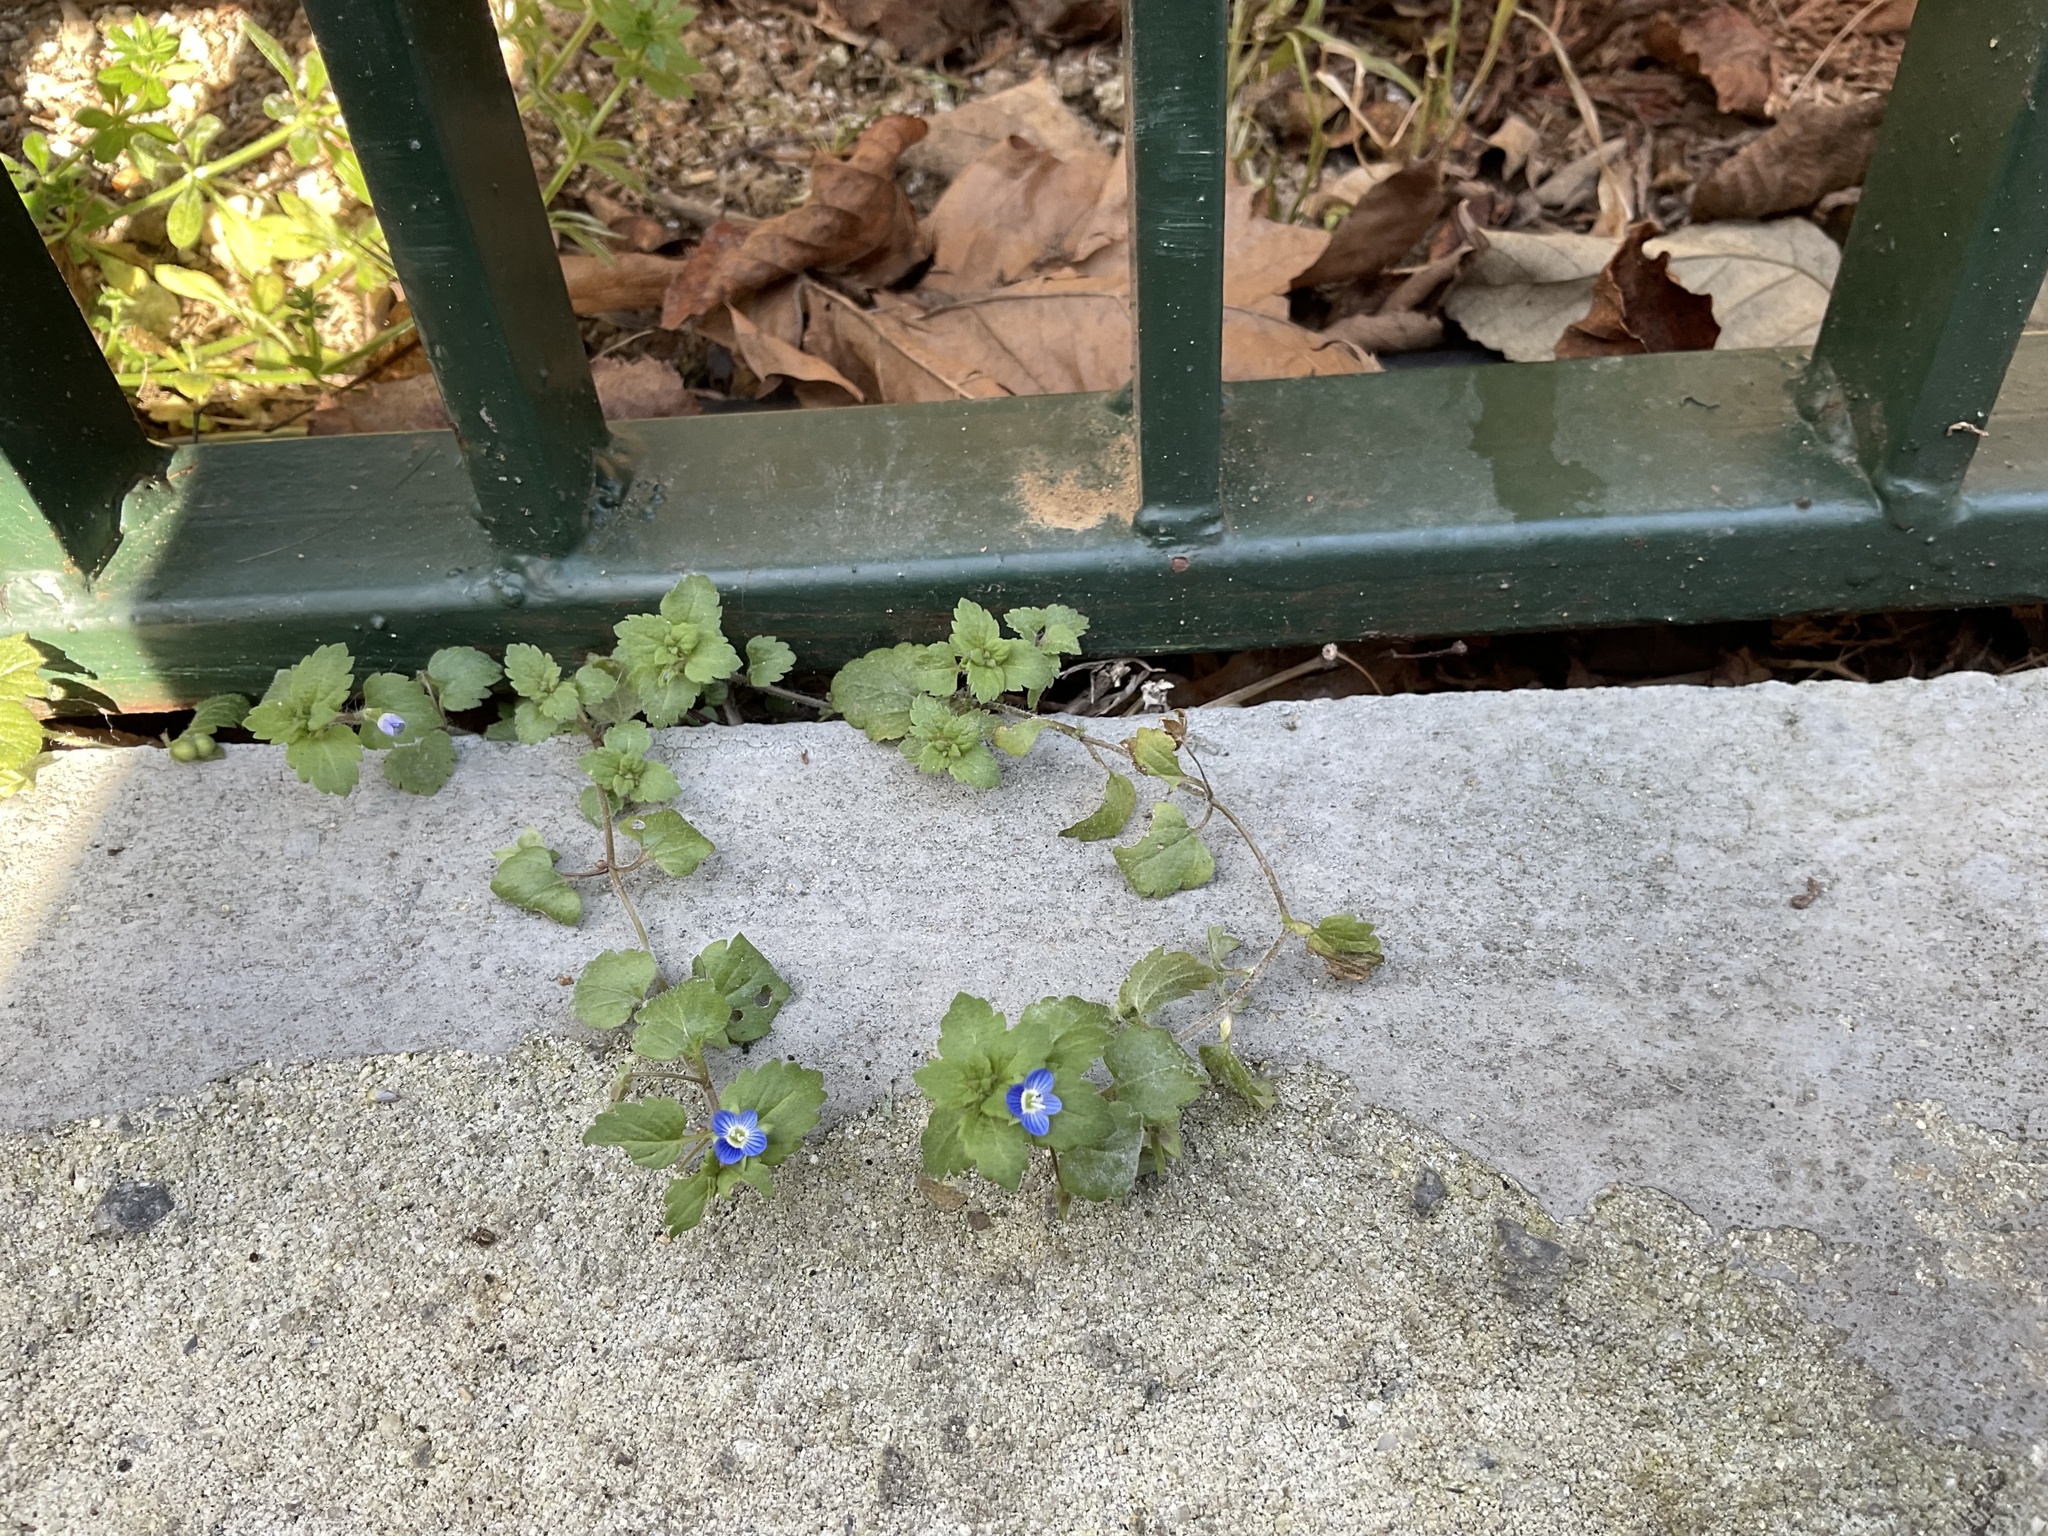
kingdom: Plantae
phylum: Tracheophyta
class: Magnoliopsida
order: Lamiales
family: Plantaginaceae
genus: Veronica
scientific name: Veronica polita
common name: Grey field-speedwell
